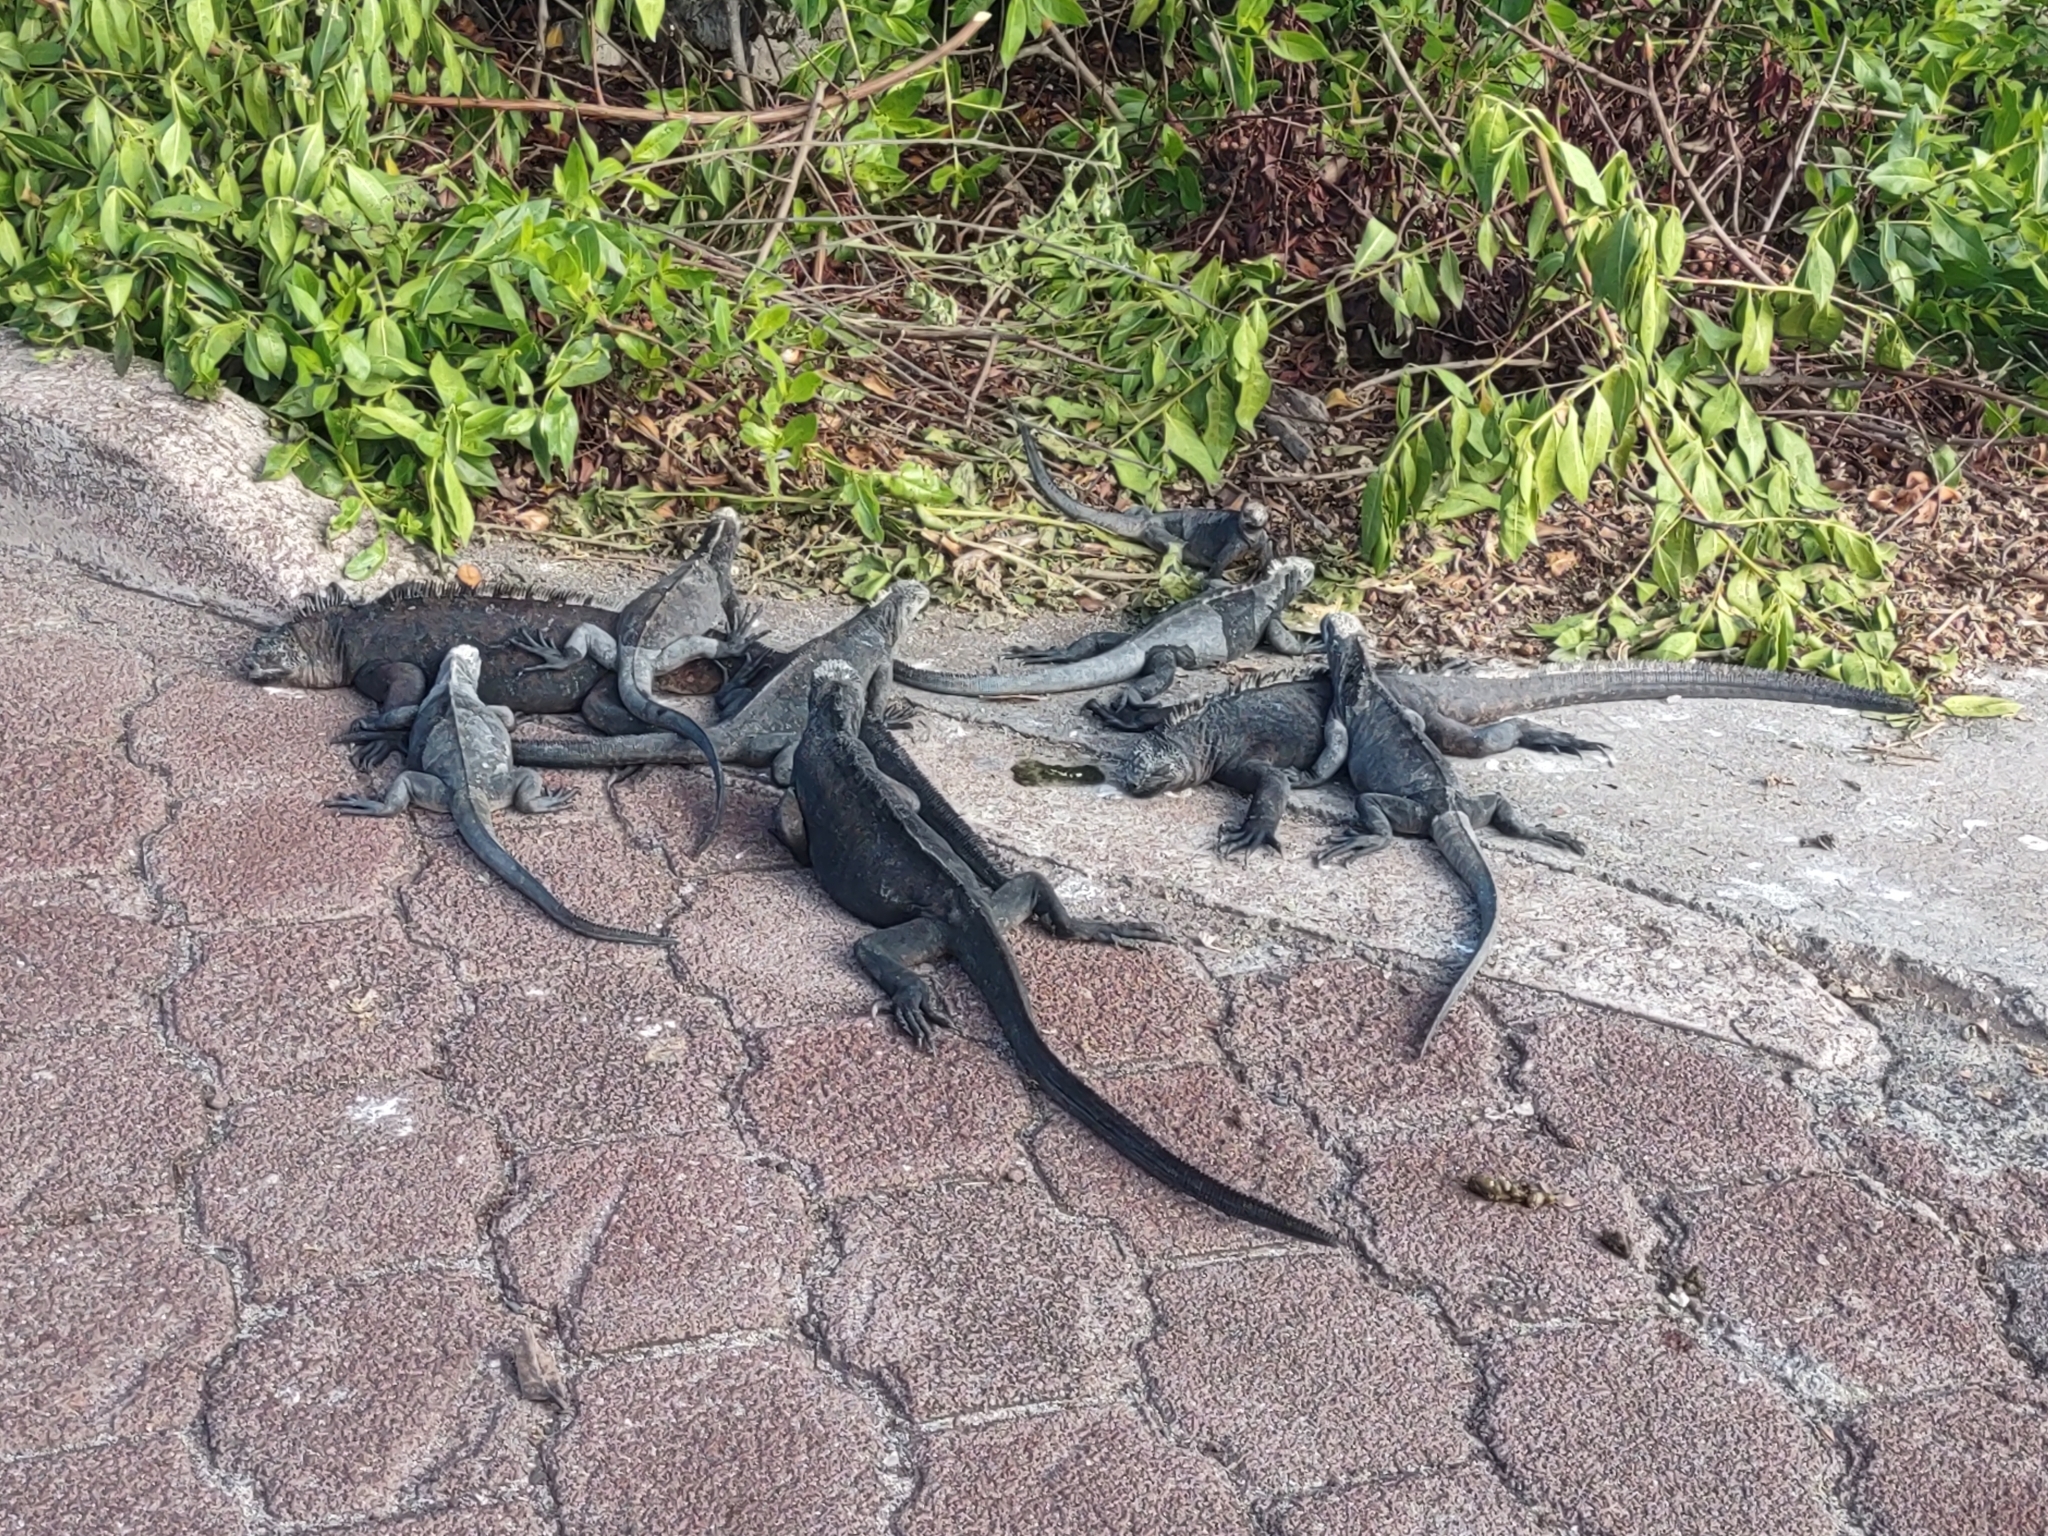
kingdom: Animalia
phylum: Chordata
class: Squamata
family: Iguanidae
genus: Amblyrhynchus
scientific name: Amblyrhynchus cristatus
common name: Marine iguana
